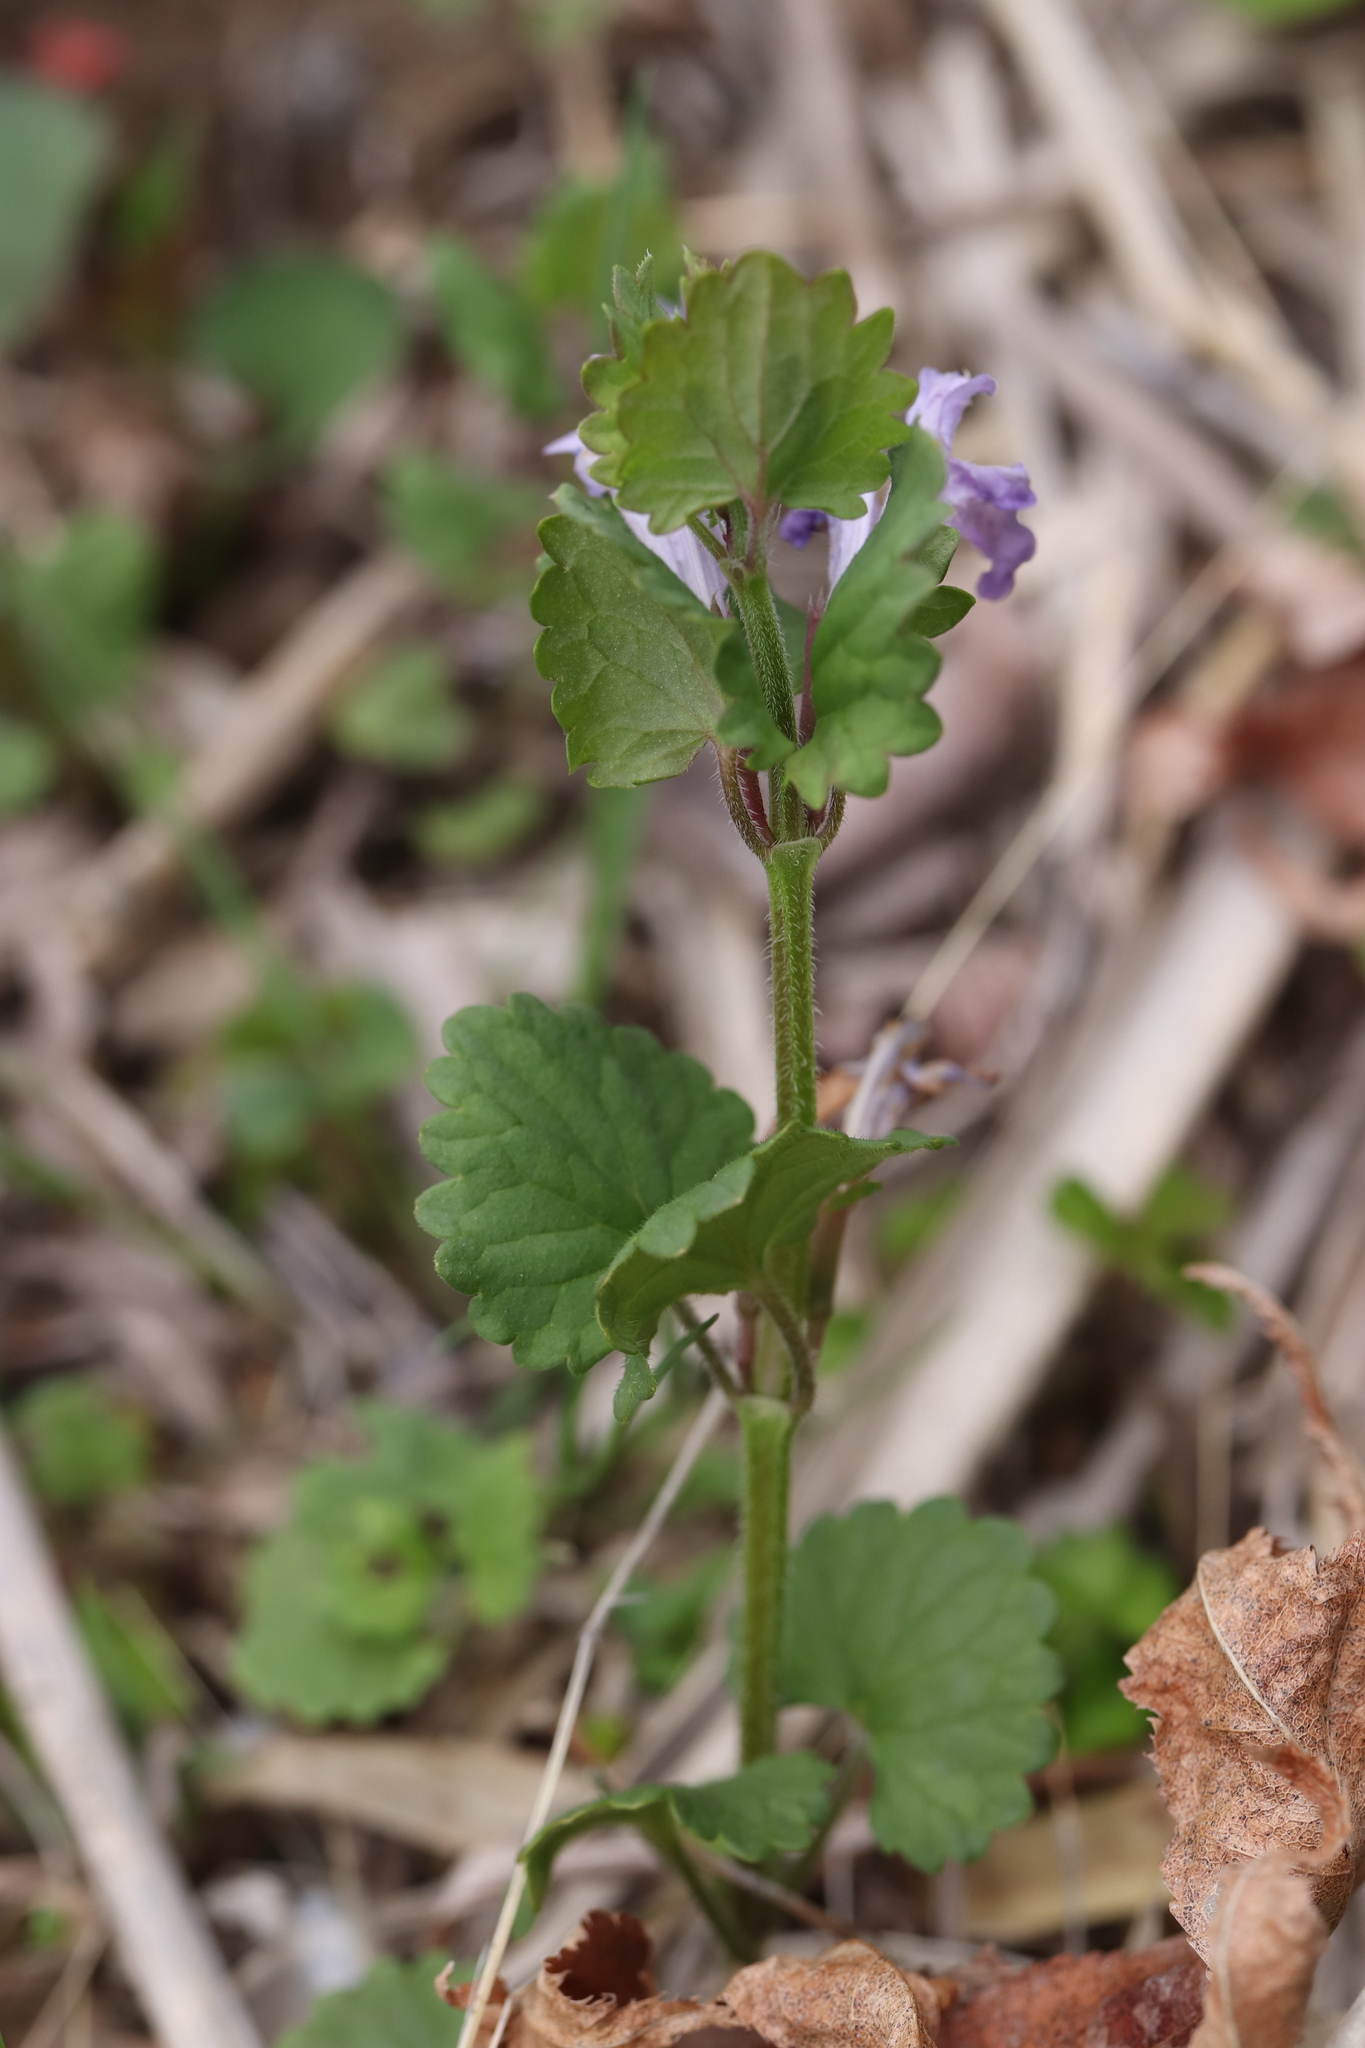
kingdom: Plantae
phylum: Tracheophyta
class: Magnoliopsida
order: Lamiales
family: Lamiaceae
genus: Glechoma
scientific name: Glechoma grandis
